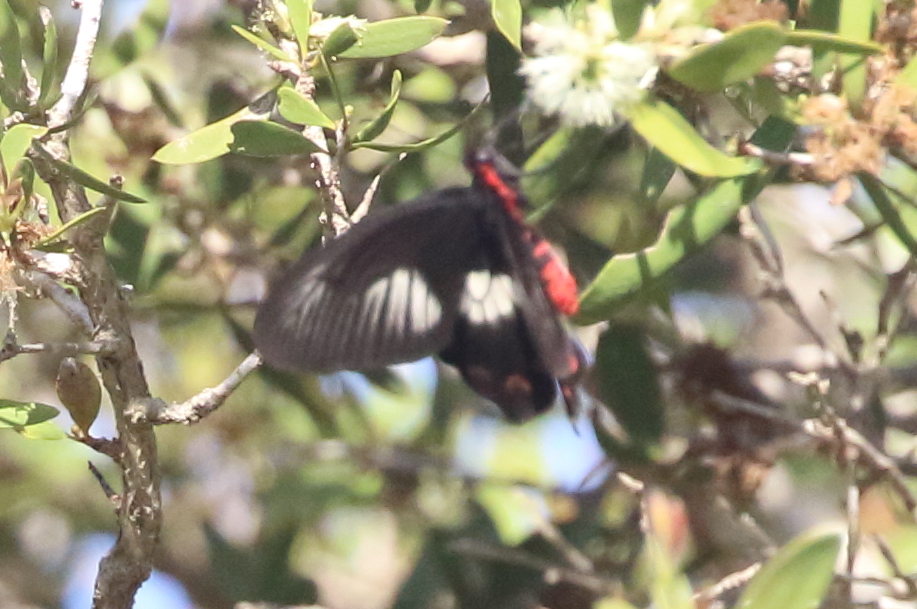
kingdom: Animalia
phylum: Arthropoda
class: Insecta
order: Lepidoptera
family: Papilionidae
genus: Pachliopta
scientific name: Pachliopta polydorus
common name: Red-bodied swallowtail
